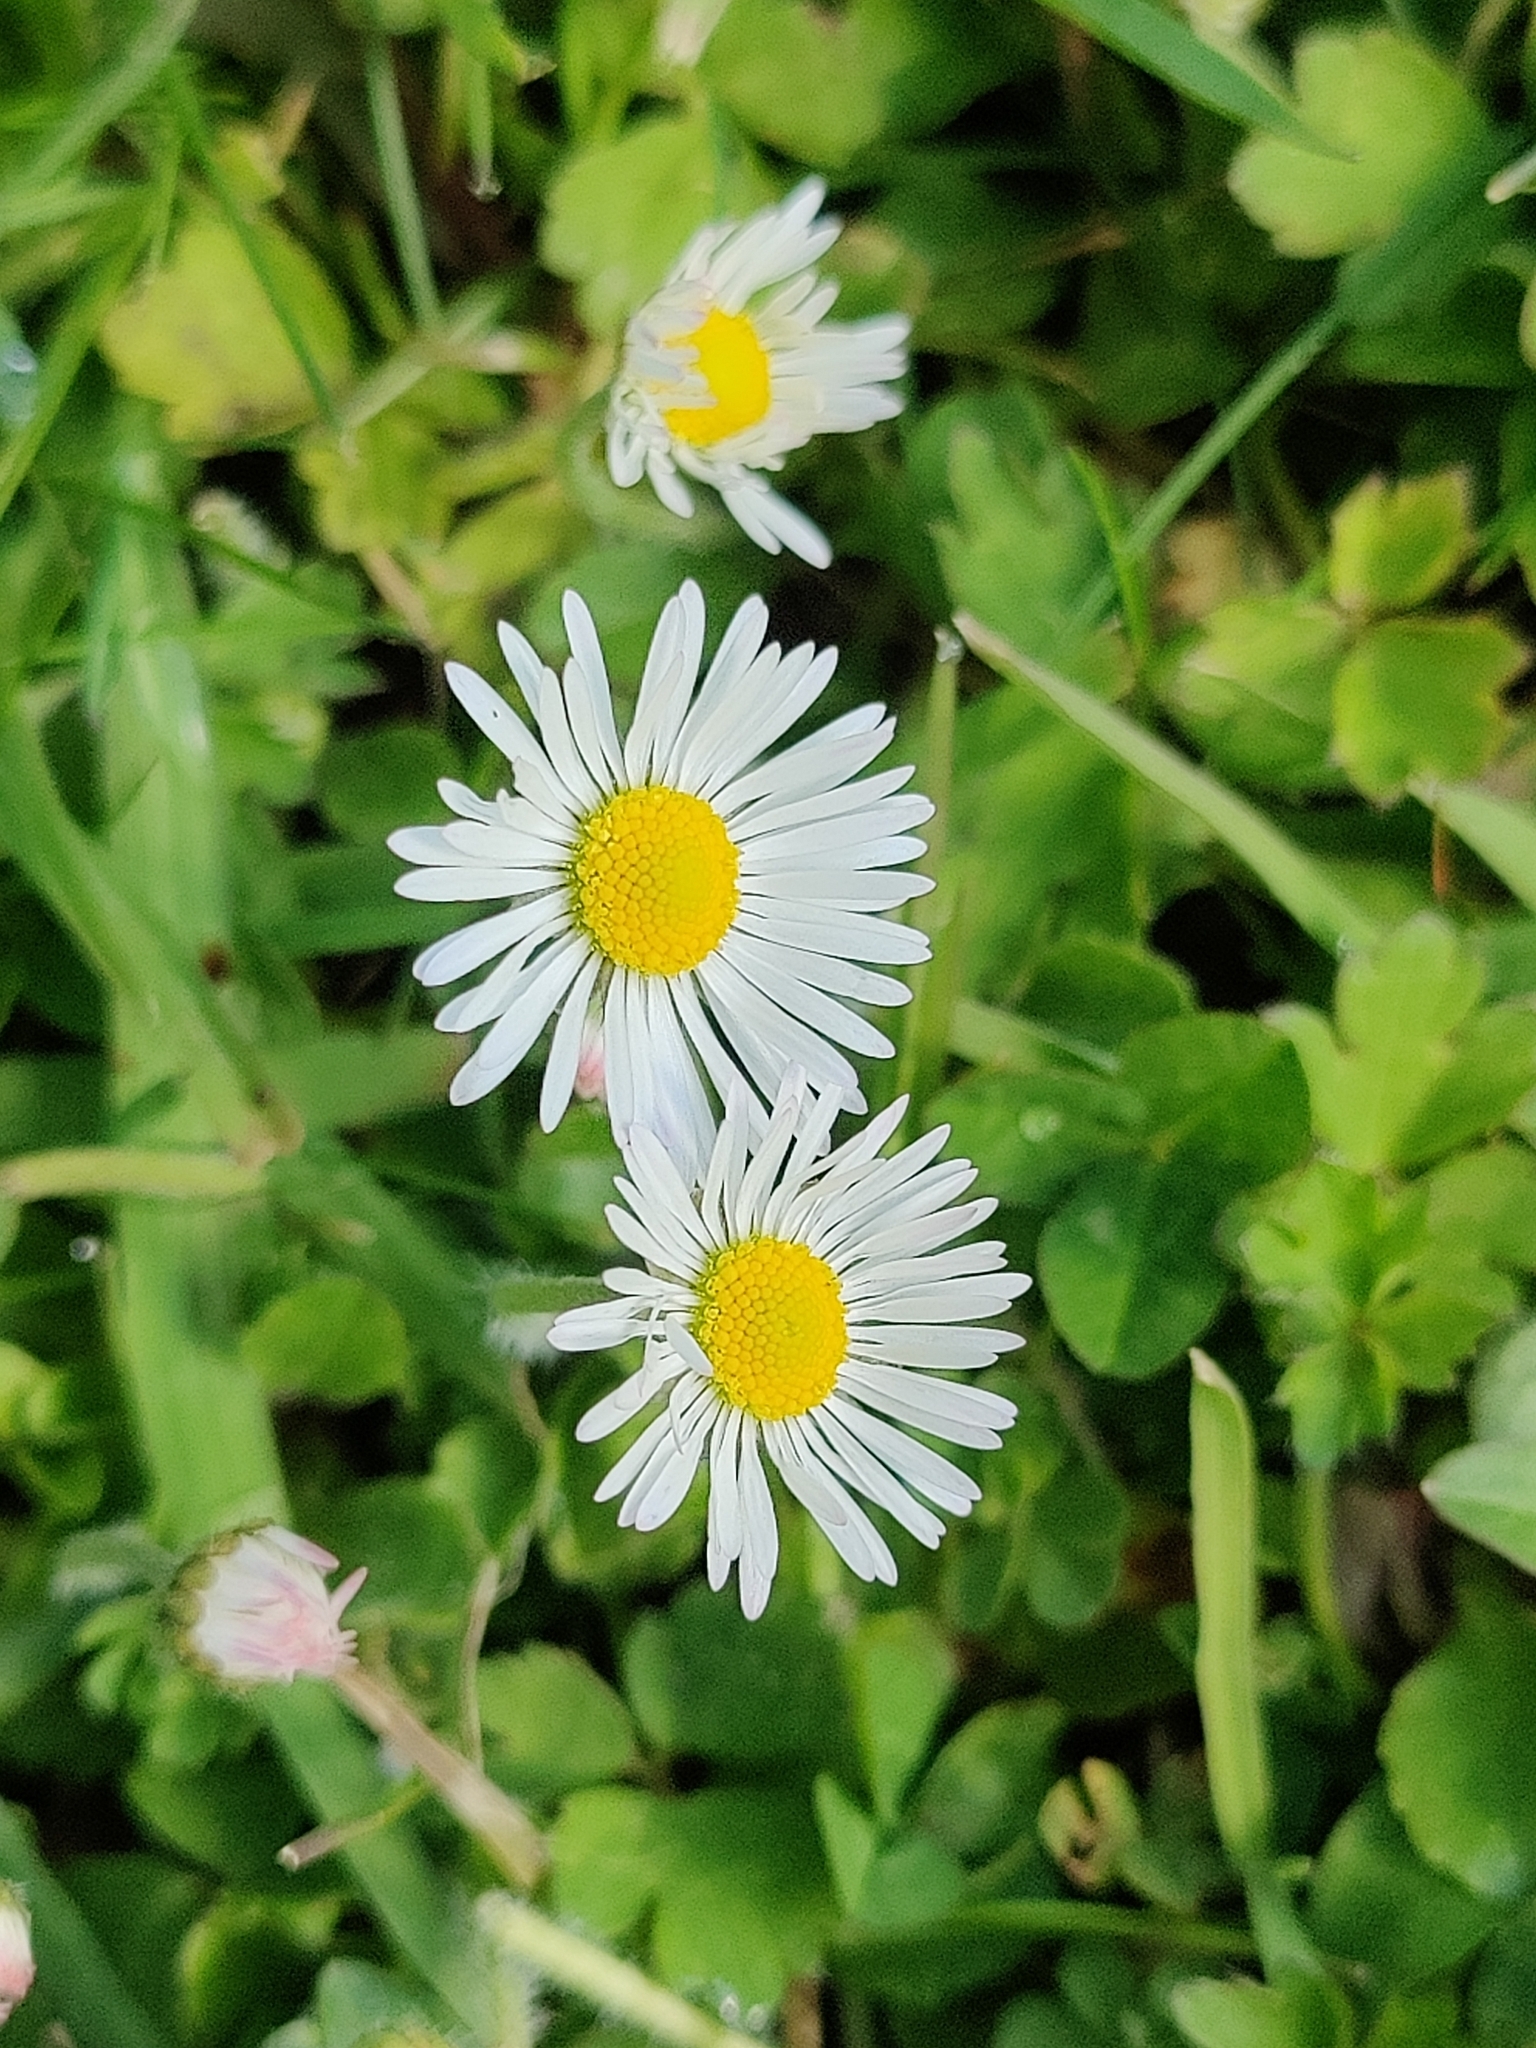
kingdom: Plantae
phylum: Tracheophyta
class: Magnoliopsida
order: Asterales
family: Asteraceae
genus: Bellis
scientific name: Bellis perennis
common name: Lawndaisy
